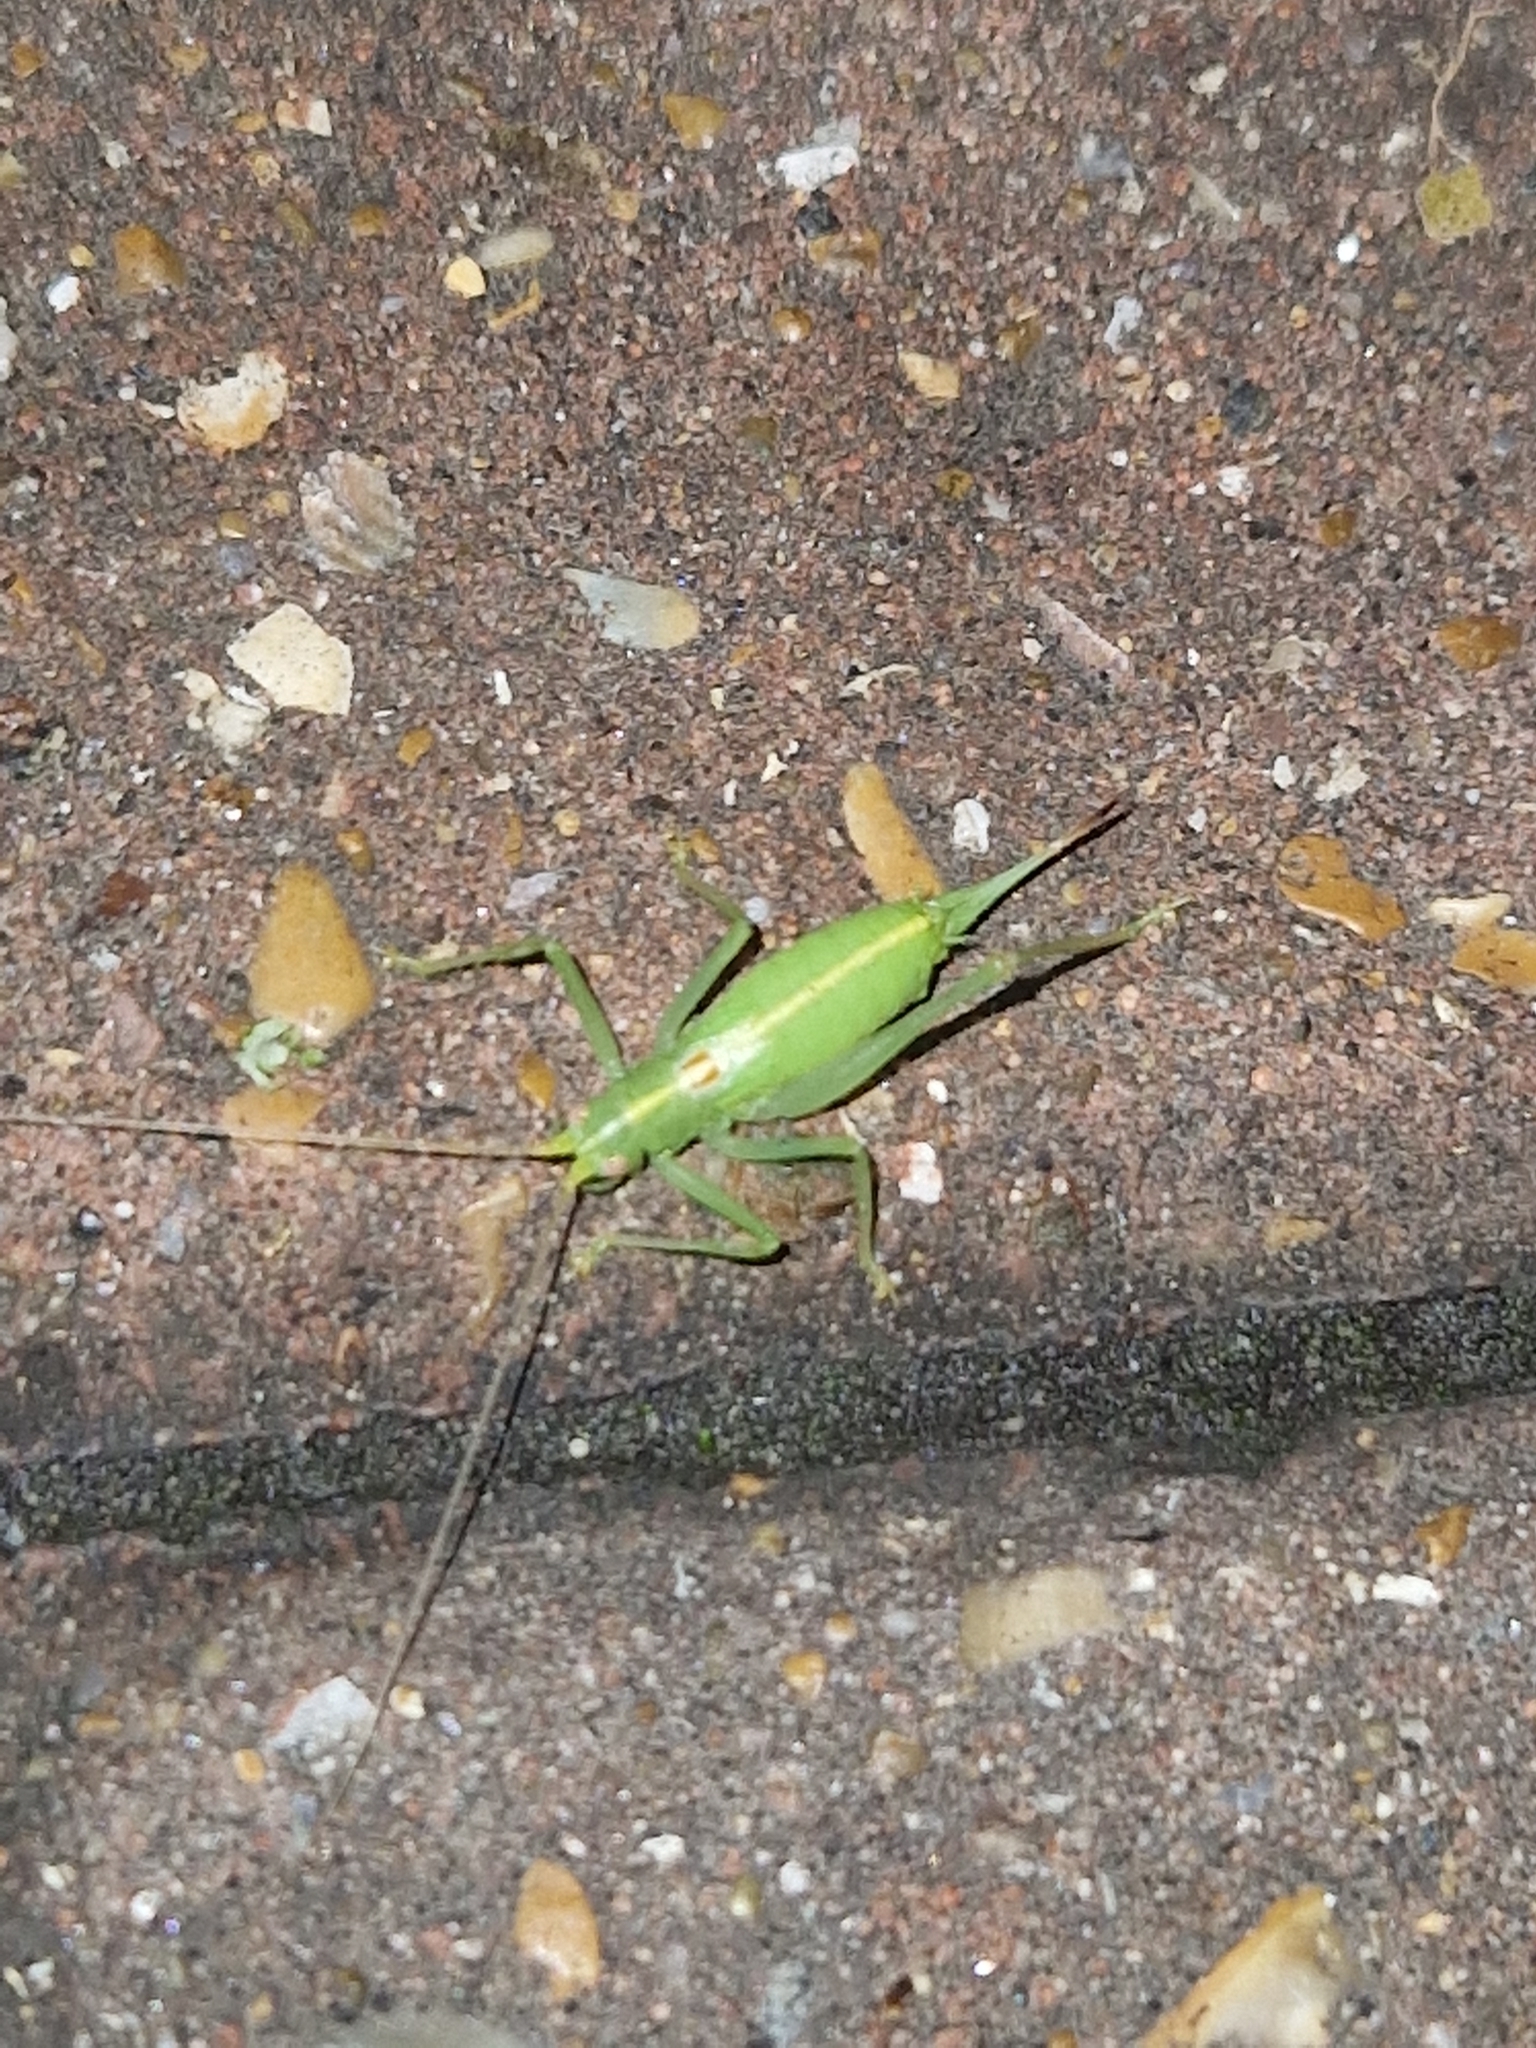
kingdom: Animalia
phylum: Arthropoda
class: Insecta
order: Orthoptera
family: Tettigoniidae
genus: Meconema
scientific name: Meconema meridionale
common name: Southern oak bush-cricket
